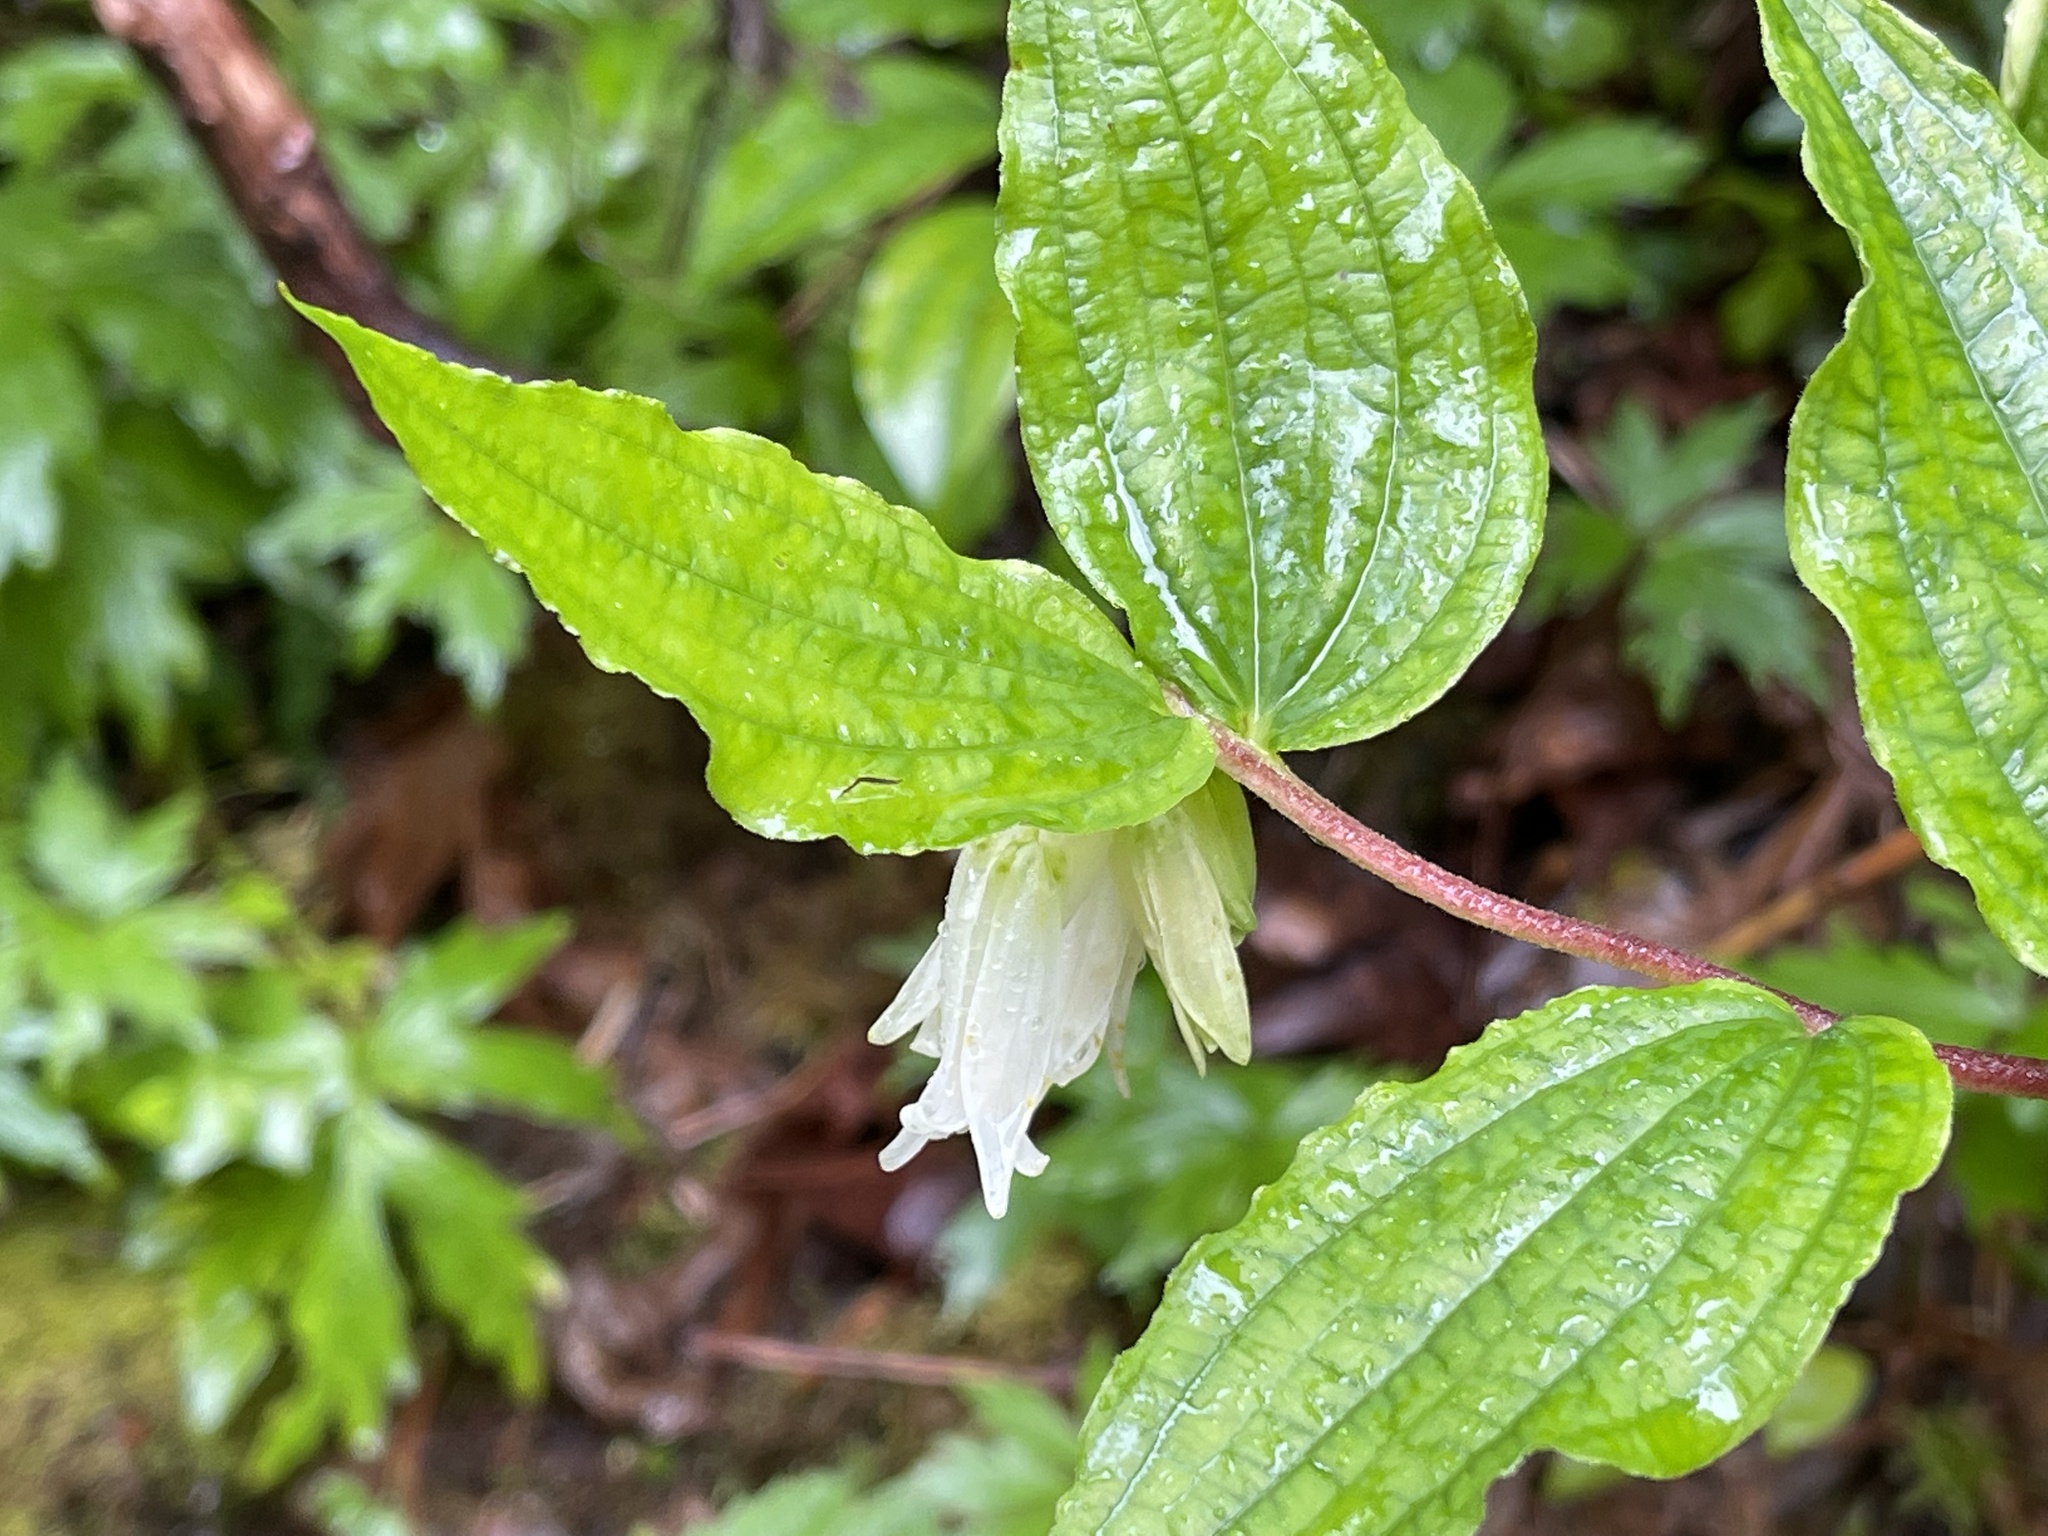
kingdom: Plantae
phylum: Tracheophyta
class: Liliopsida
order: Liliales
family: Liliaceae
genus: Prosartes
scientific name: Prosartes smithii
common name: Fairy-lantern
